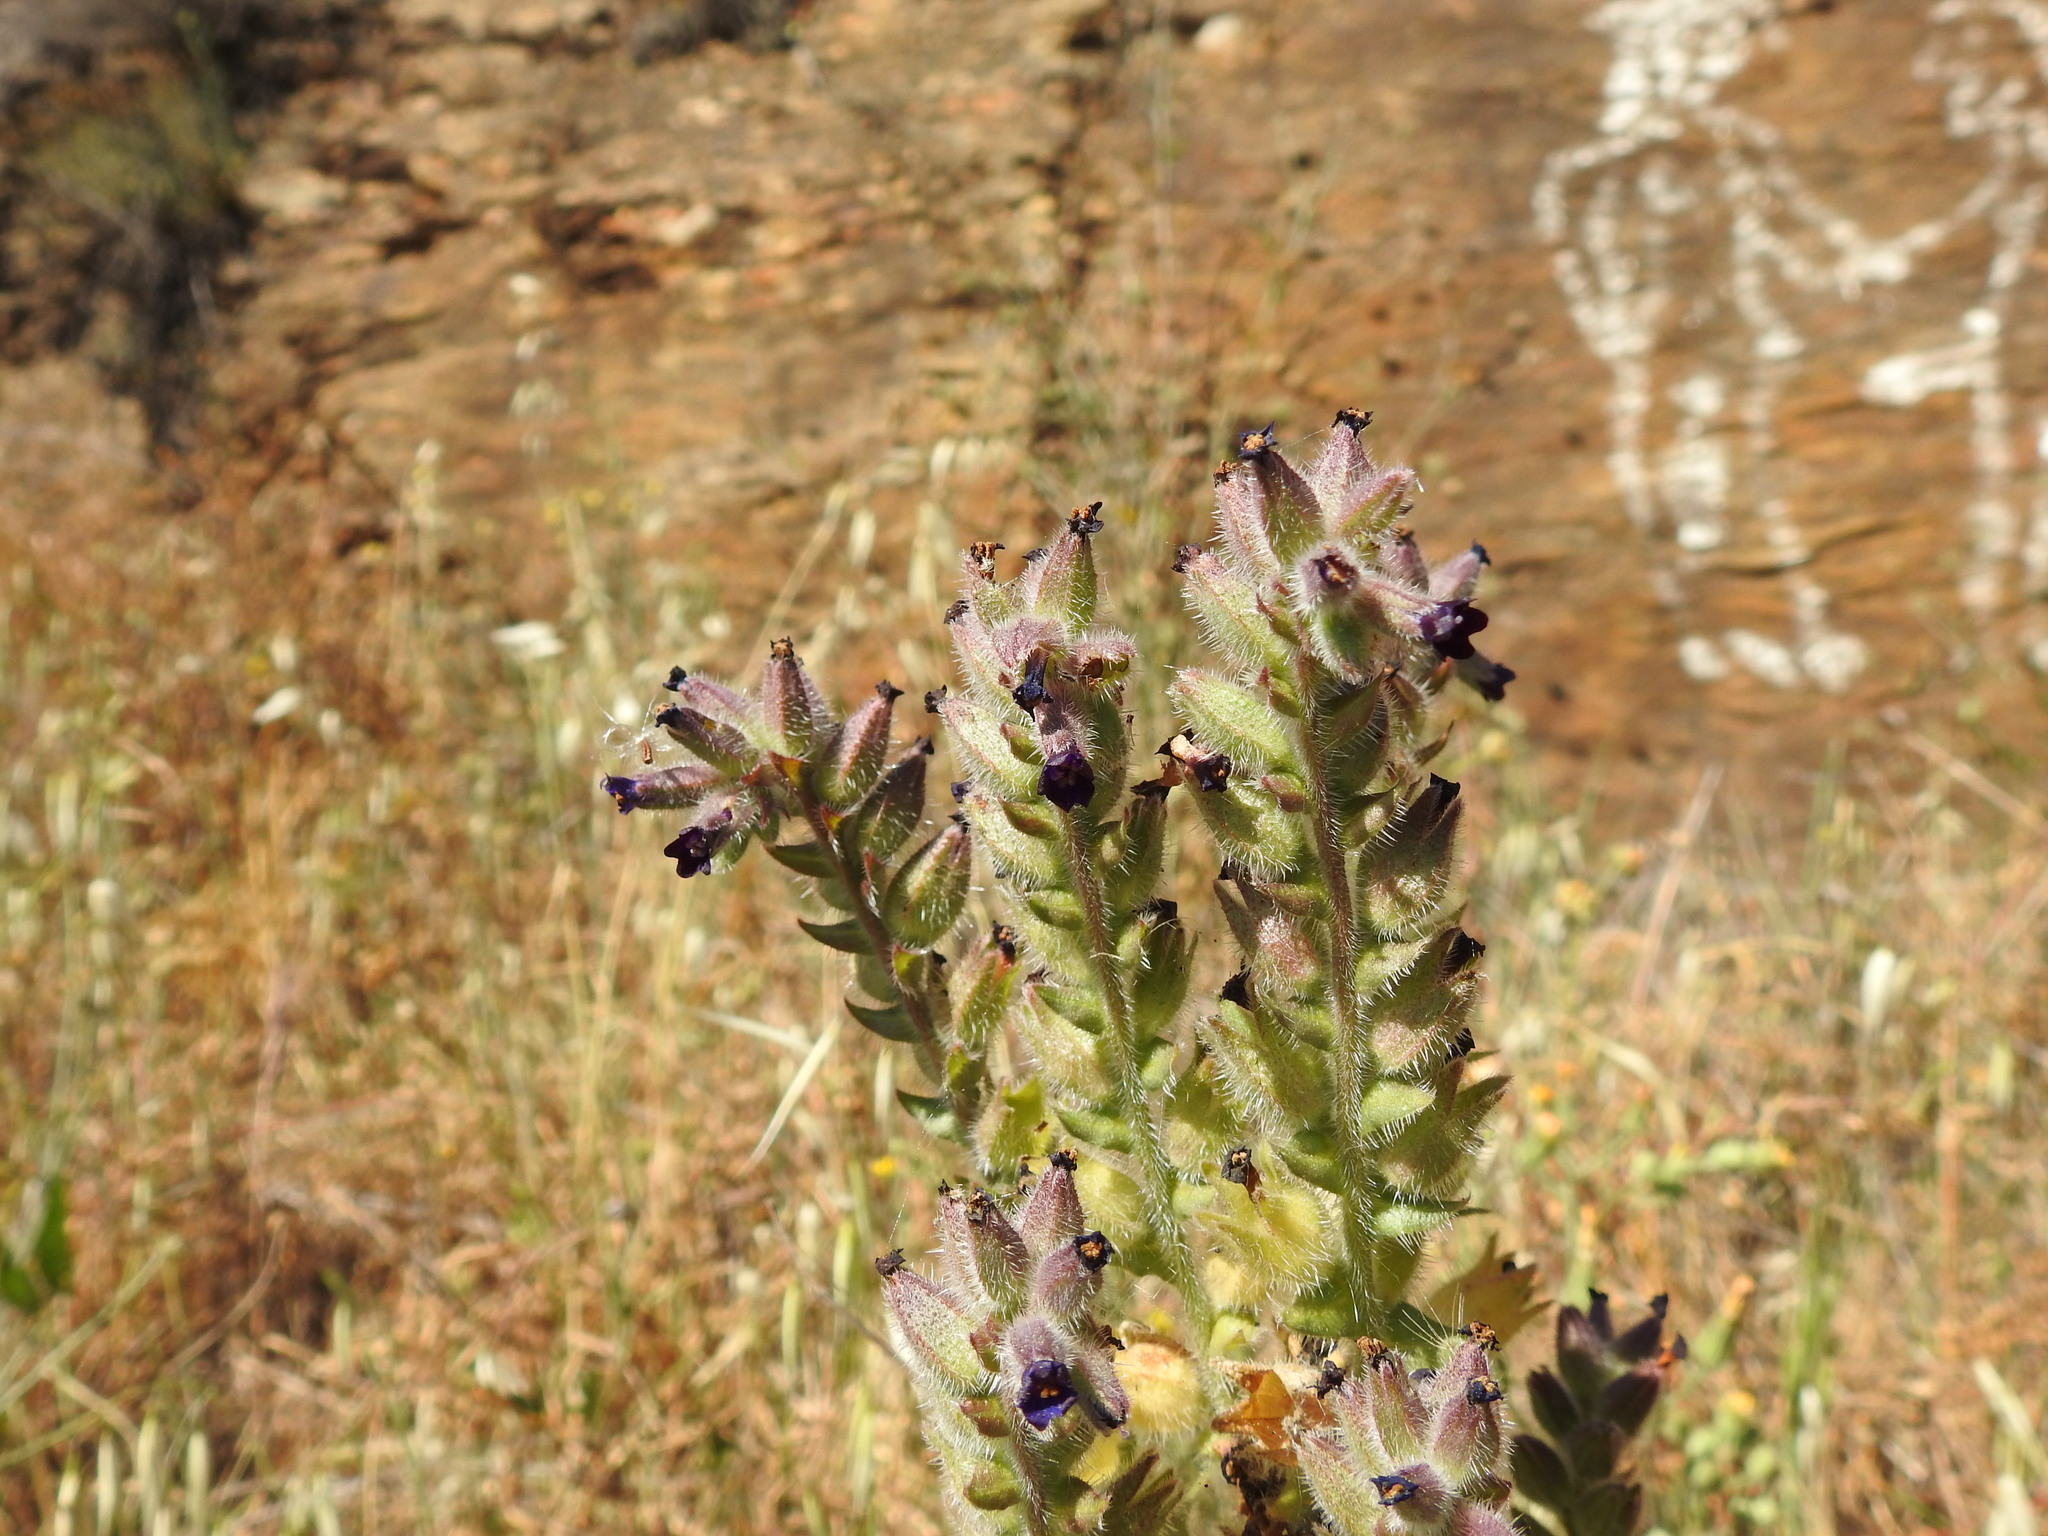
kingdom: Plantae
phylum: Tracheophyta
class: Magnoliopsida
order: Boraginales
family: Boraginaceae
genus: Anchusa
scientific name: Anchusa undulata
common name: Undulate alkanet
